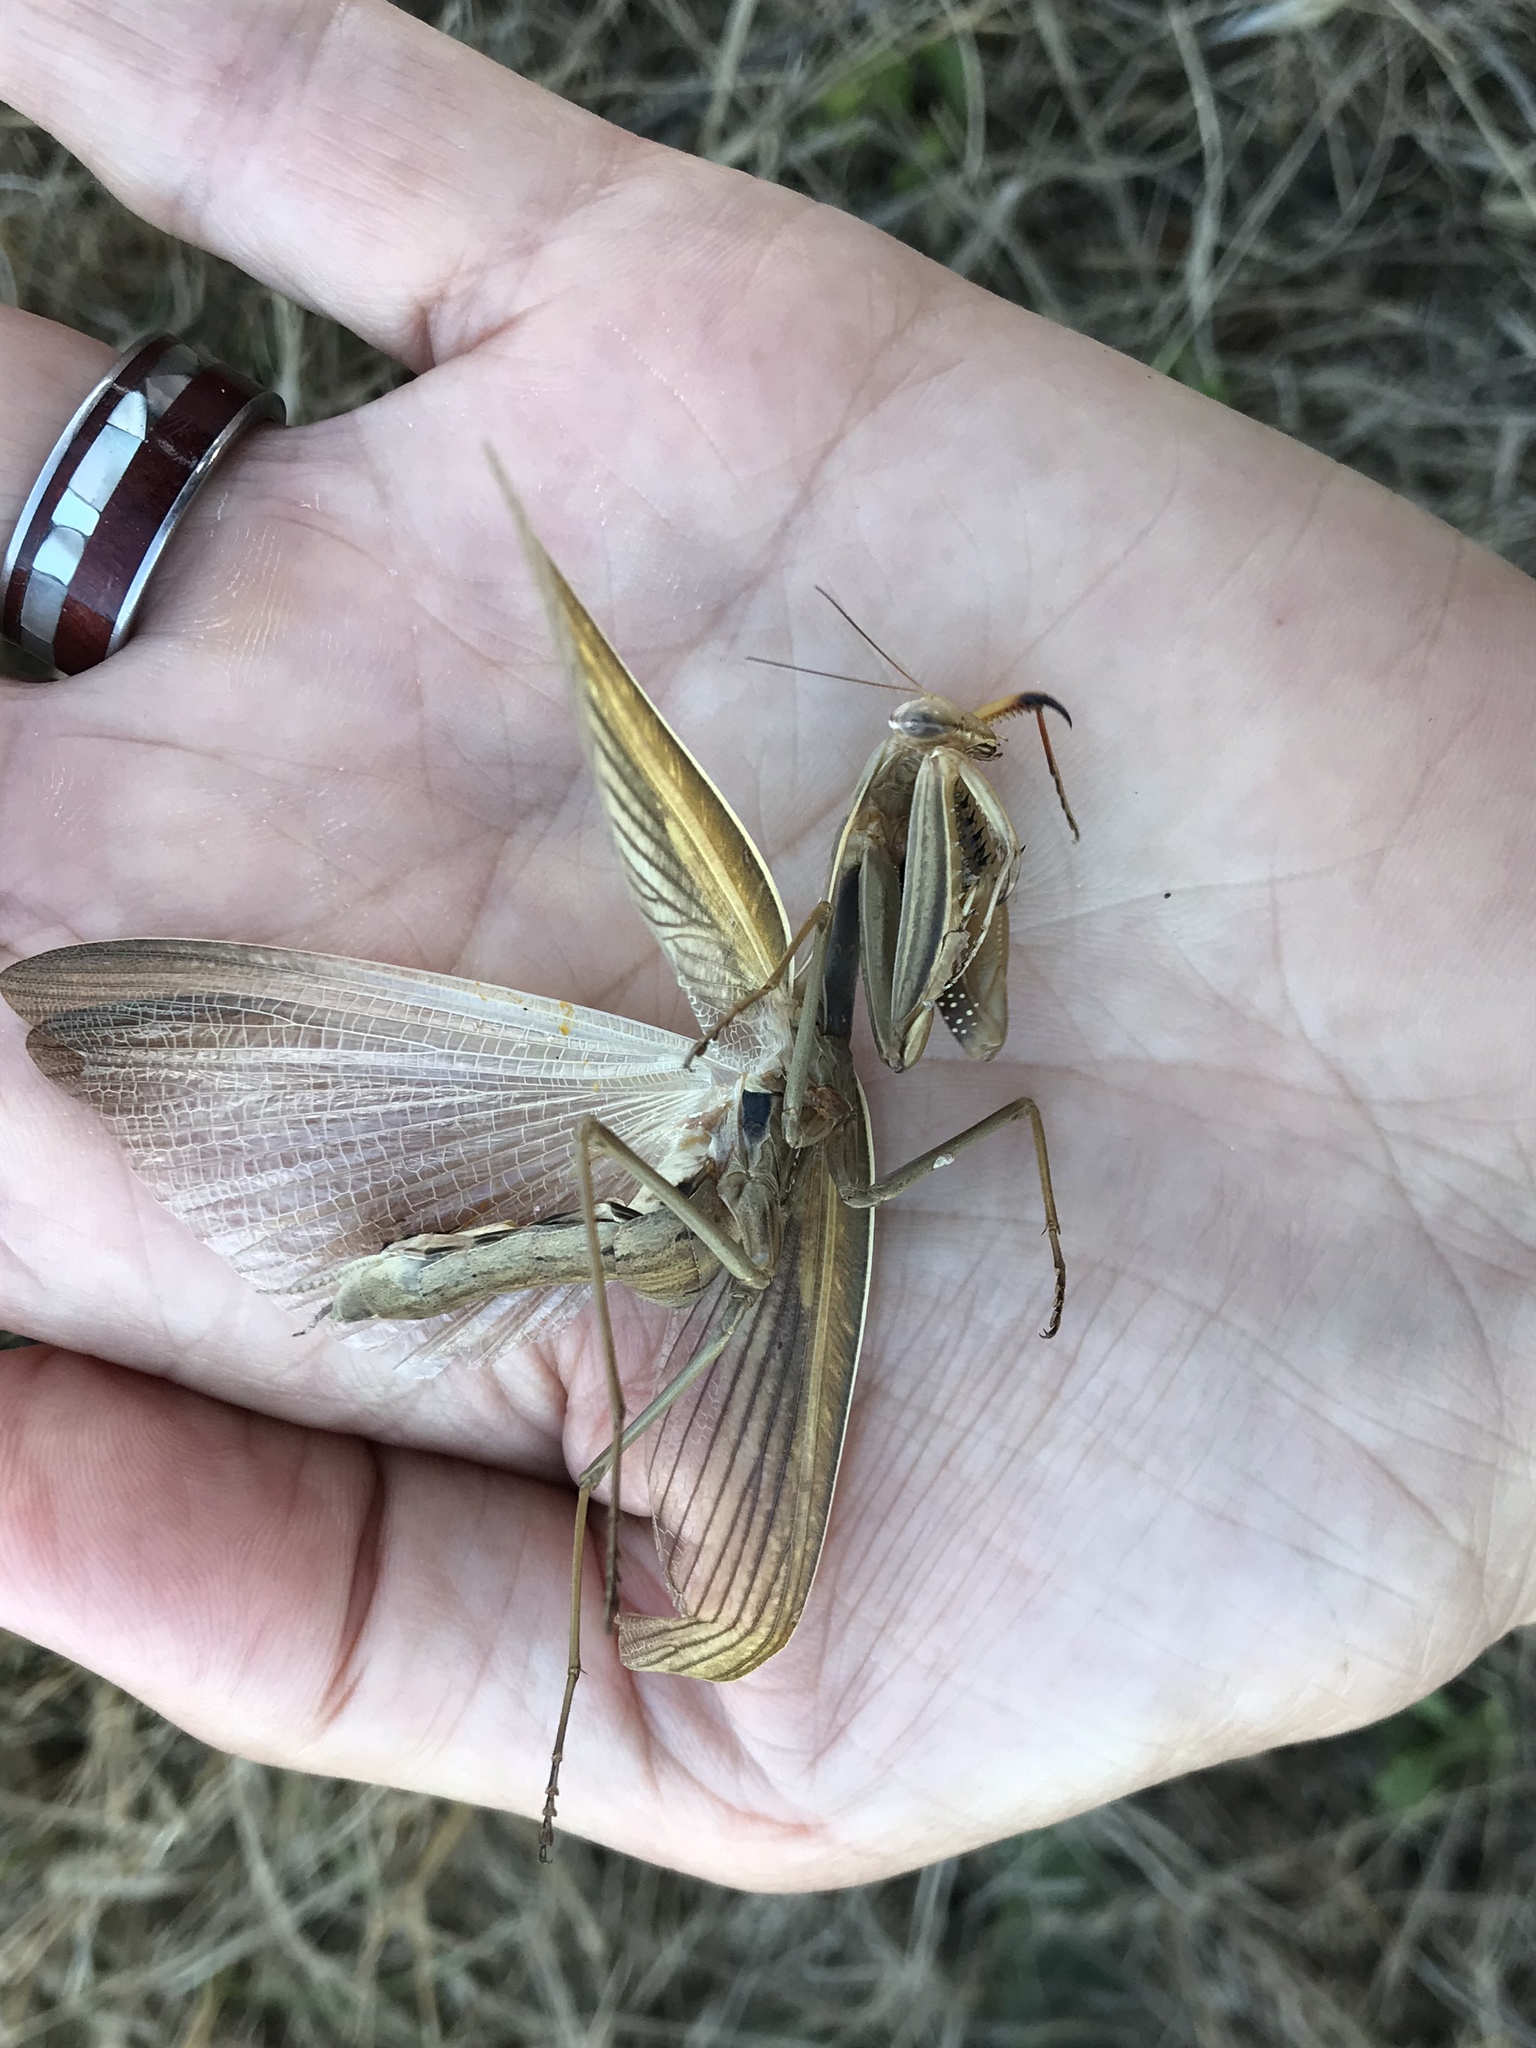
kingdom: Animalia
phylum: Arthropoda
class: Insecta
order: Mantodea
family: Mantidae
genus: Mantis
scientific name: Mantis religiosa
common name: Praying mantis
